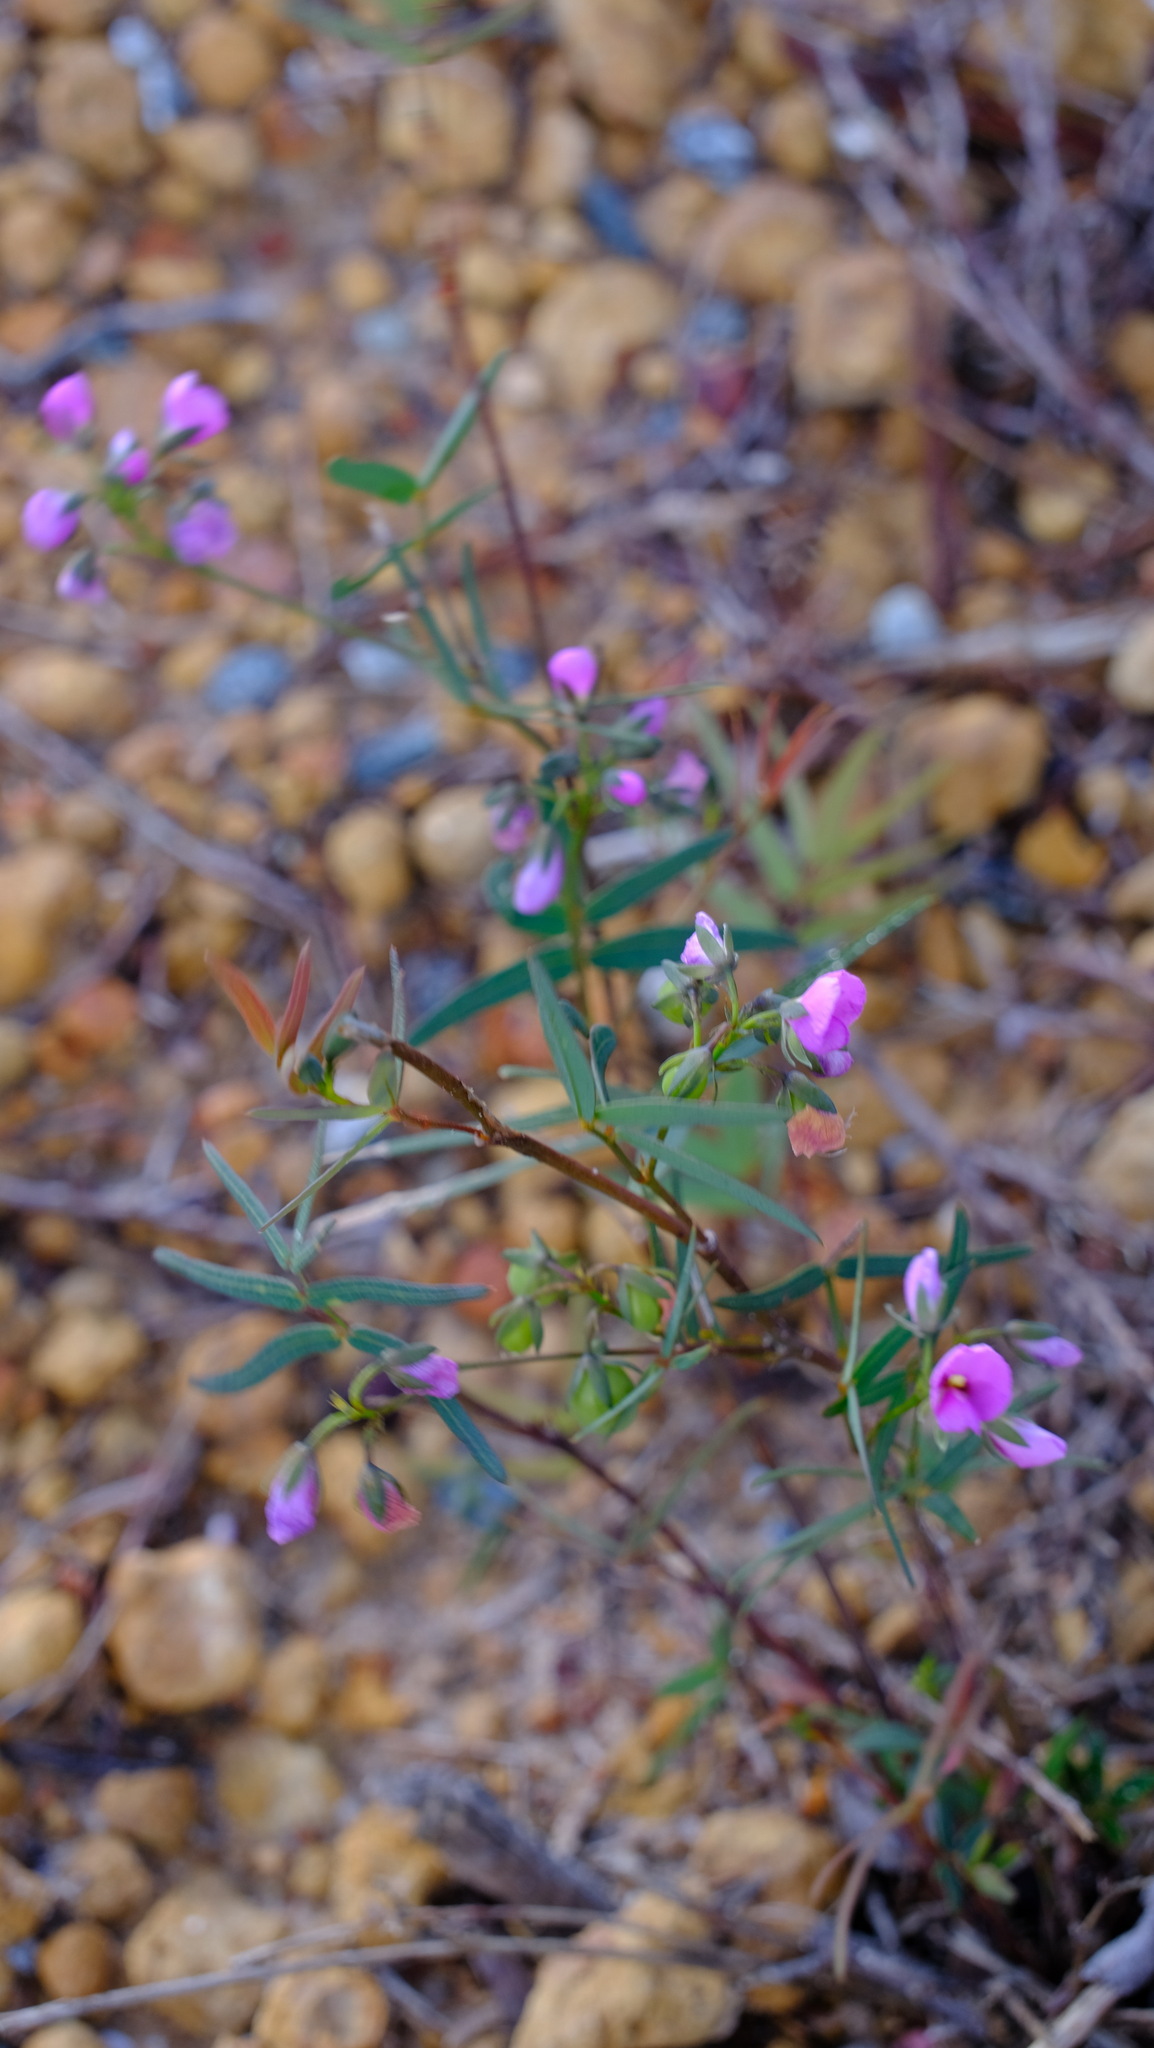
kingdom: Plantae
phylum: Tracheophyta
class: Magnoliopsida
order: Fabales
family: Fabaceae
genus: Gompholobium
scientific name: Gompholobium knightianum
